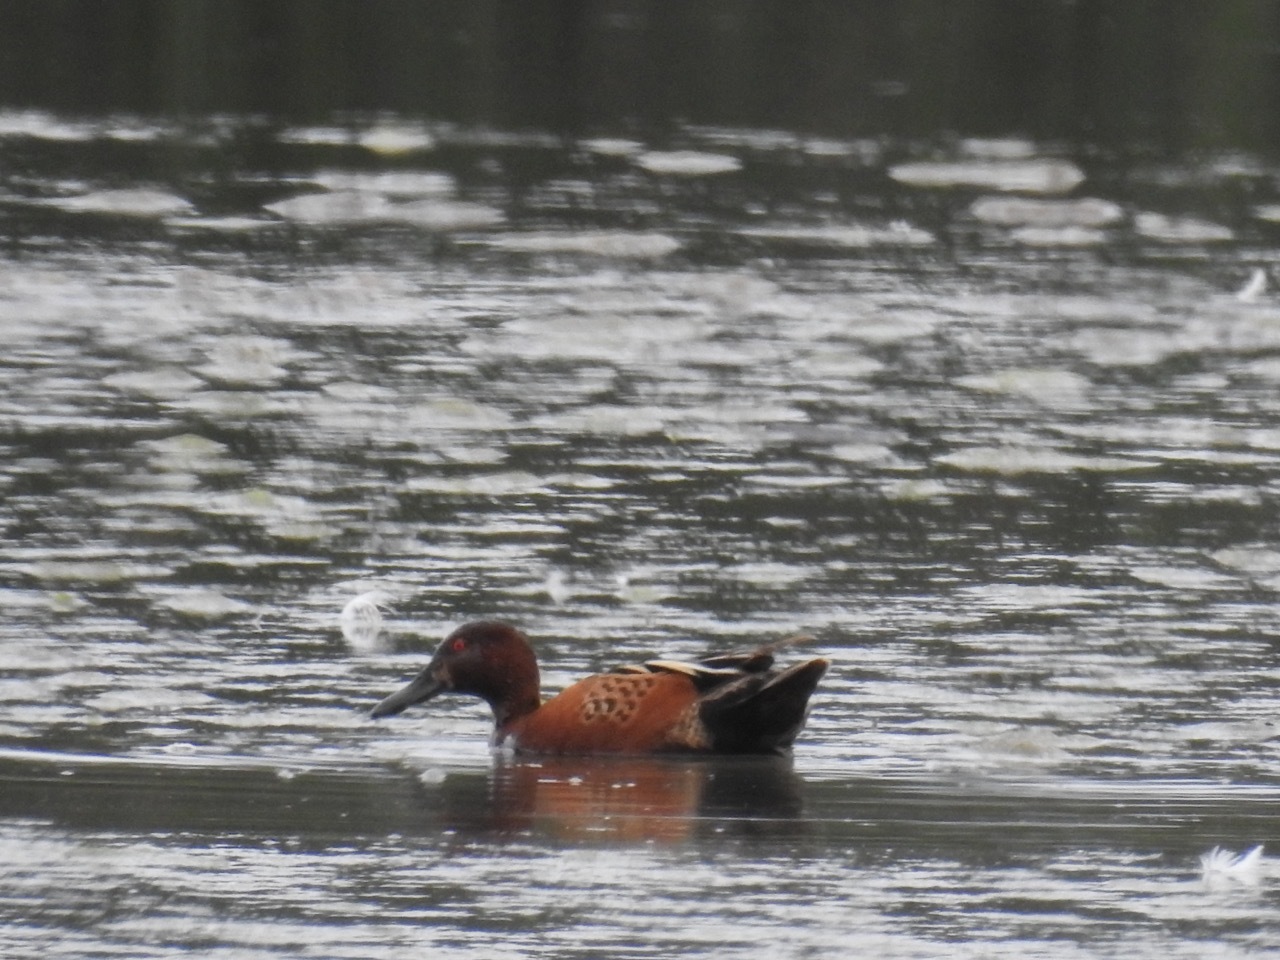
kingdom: Animalia
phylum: Chordata
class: Aves
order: Anseriformes
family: Anatidae
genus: Spatula
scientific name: Spatula cyanoptera
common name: Cinnamon teal
